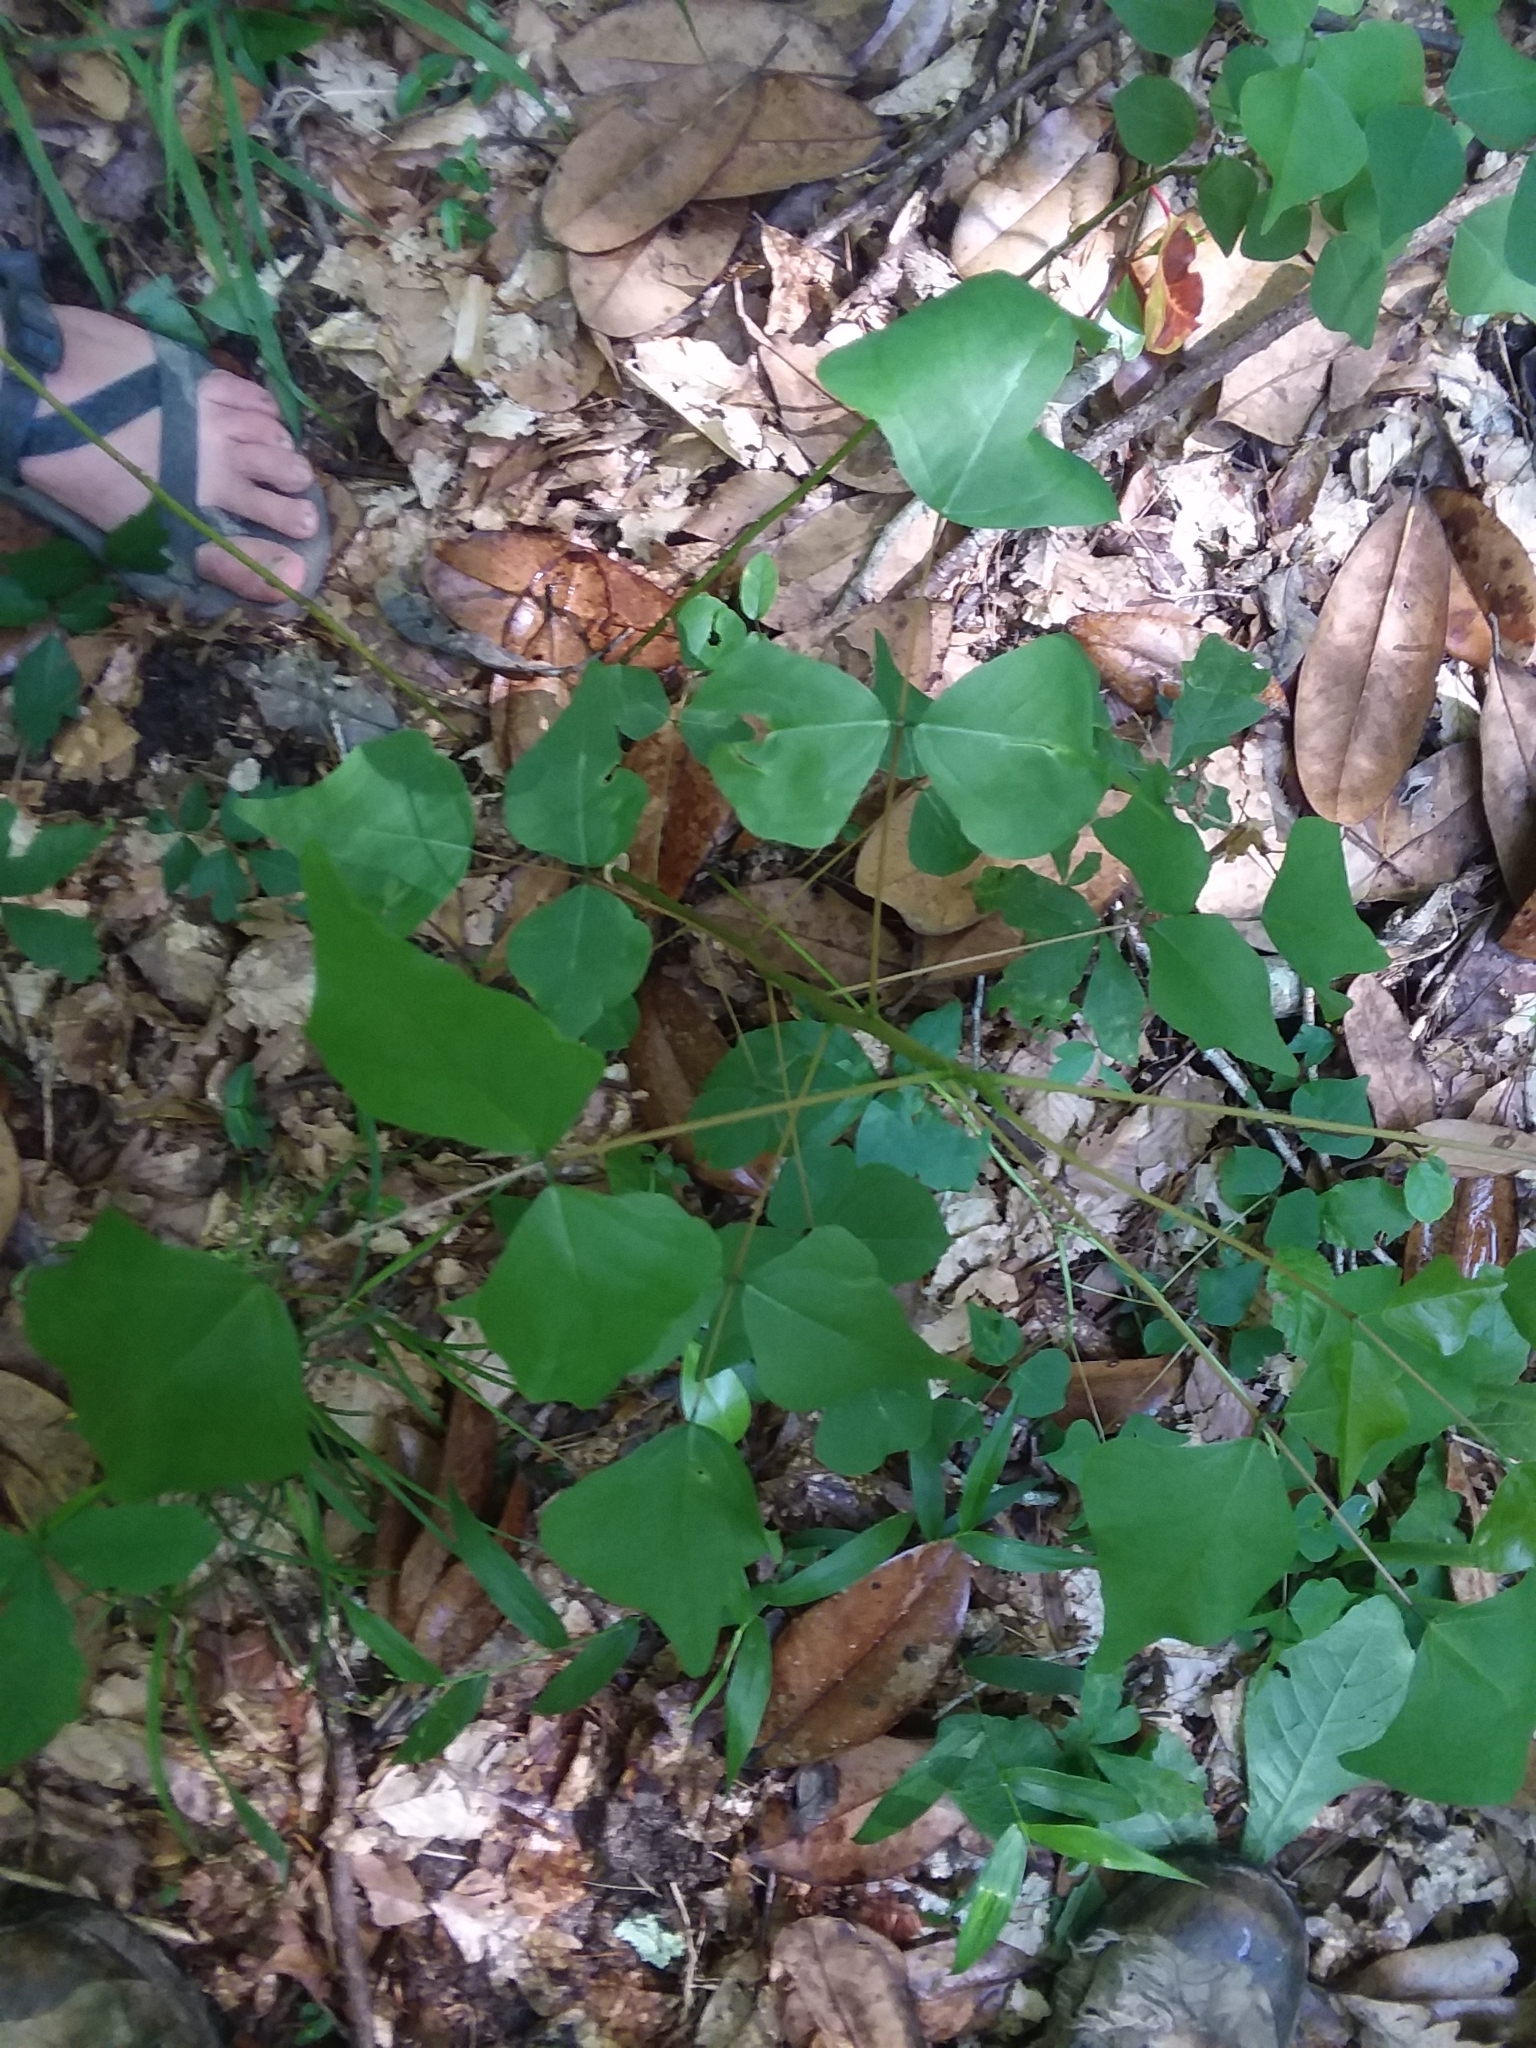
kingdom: Plantae
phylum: Tracheophyta
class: Magnoliopsida
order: Fabales
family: Fabaceae
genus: Erythrina
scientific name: Erythrina herbacea
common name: Coral-bean
